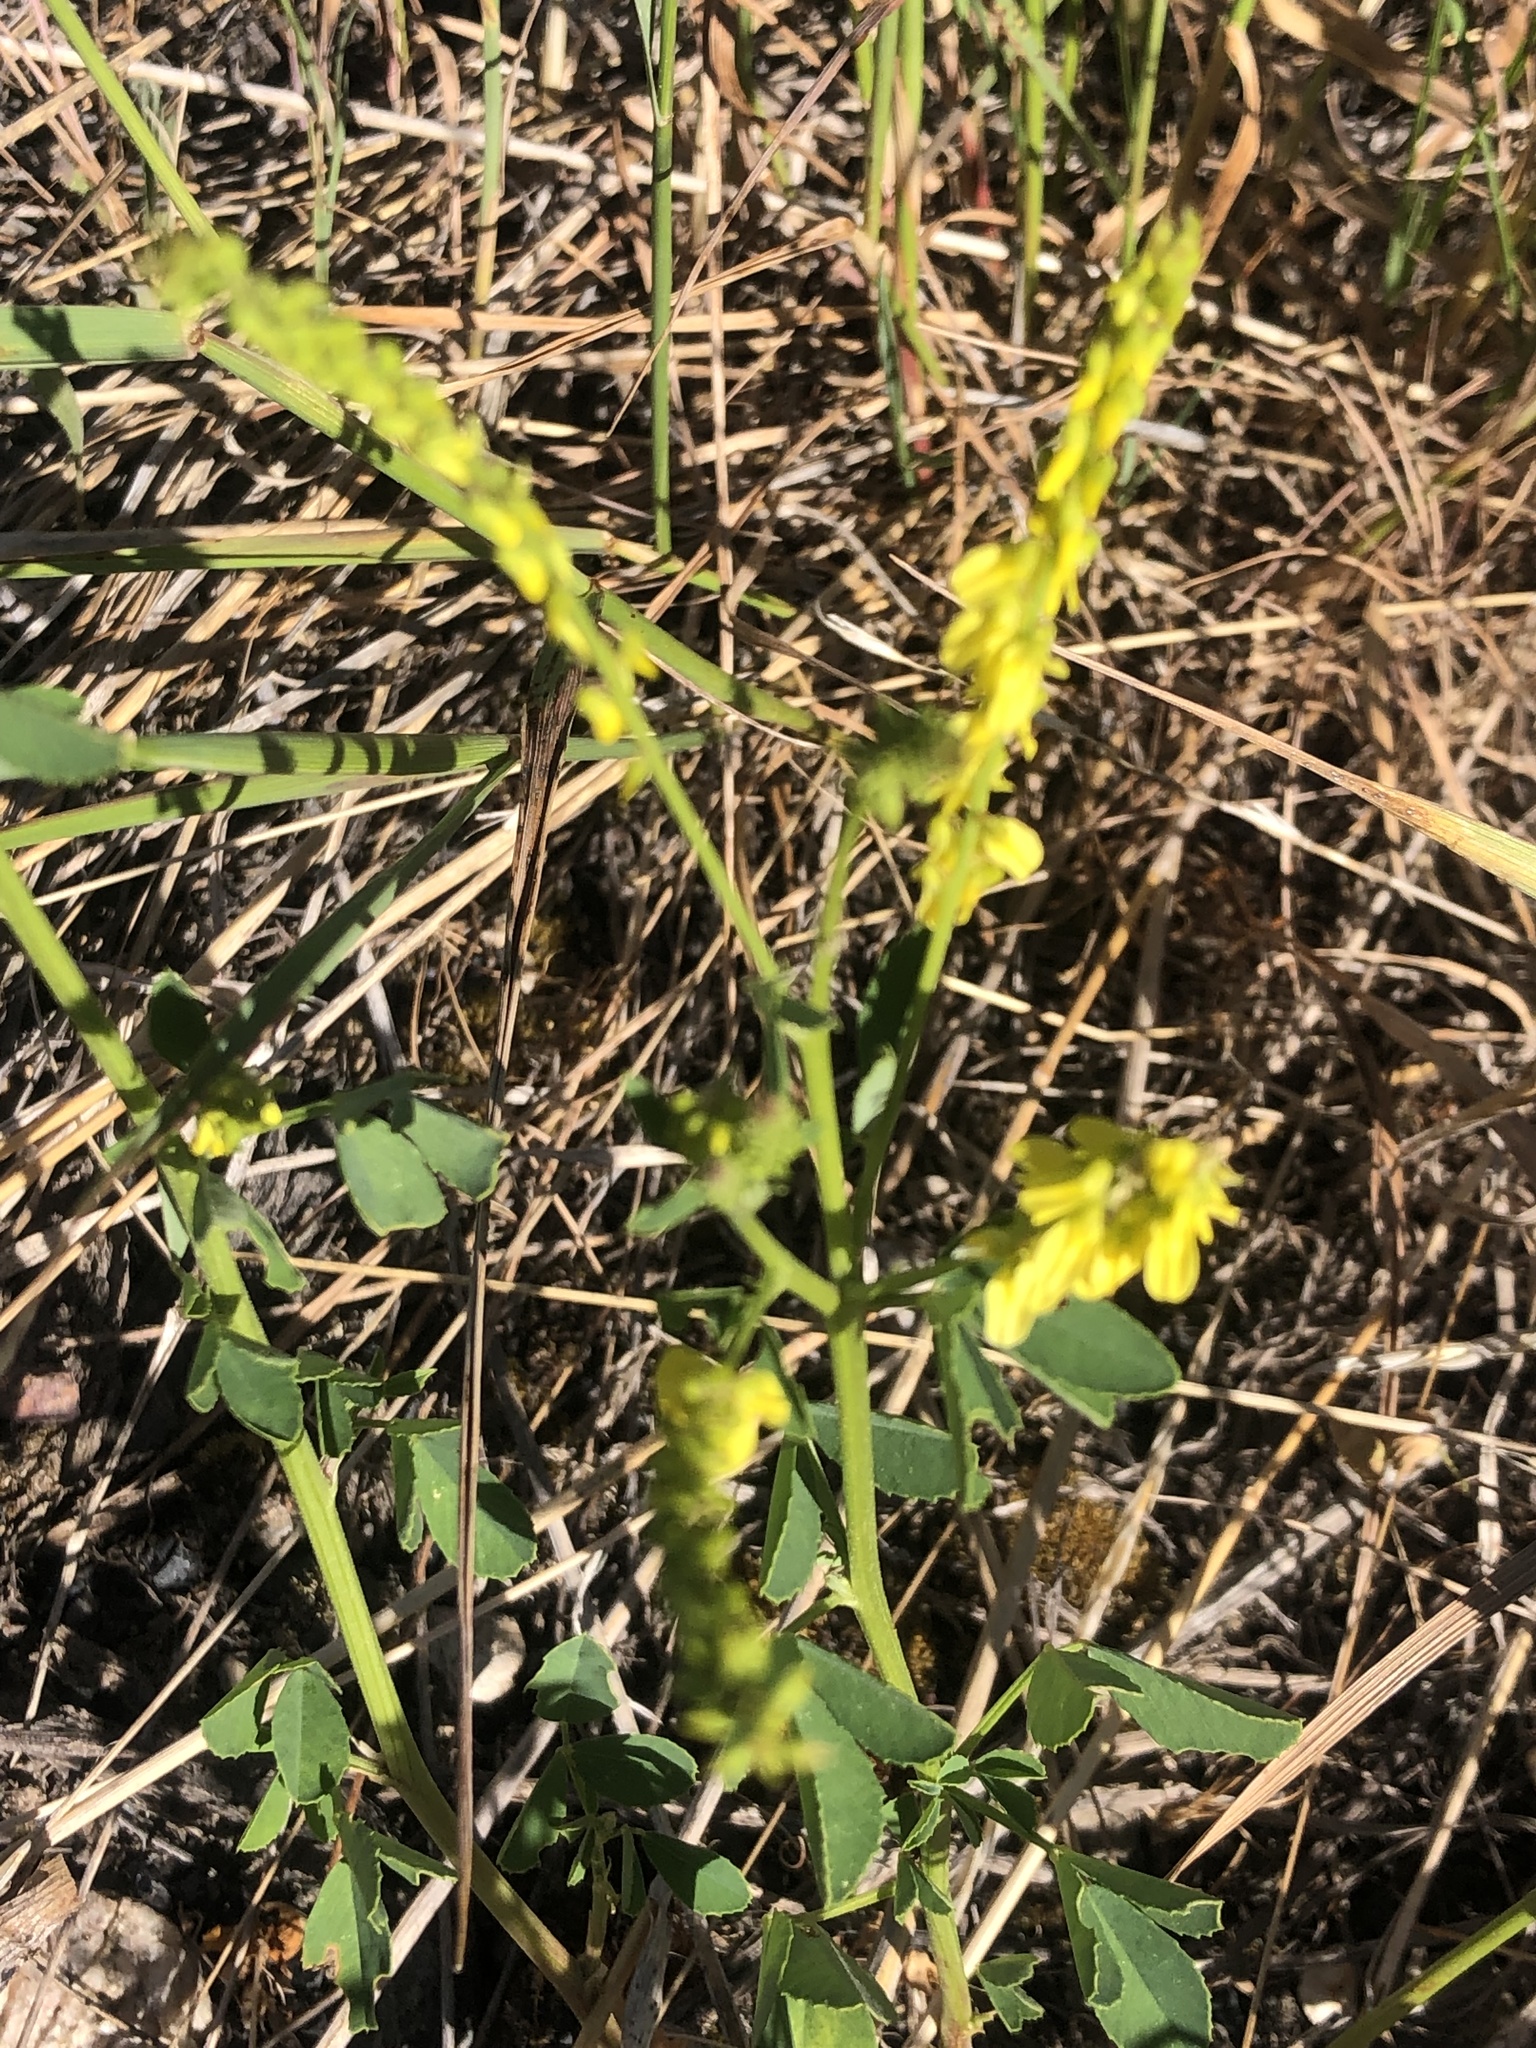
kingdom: Plantae
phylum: Tracheophyta
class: Magnoliopsida
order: Fabales
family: Fabaceae
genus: Melilotus
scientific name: Melilotus officinalis
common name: Sweetclover
